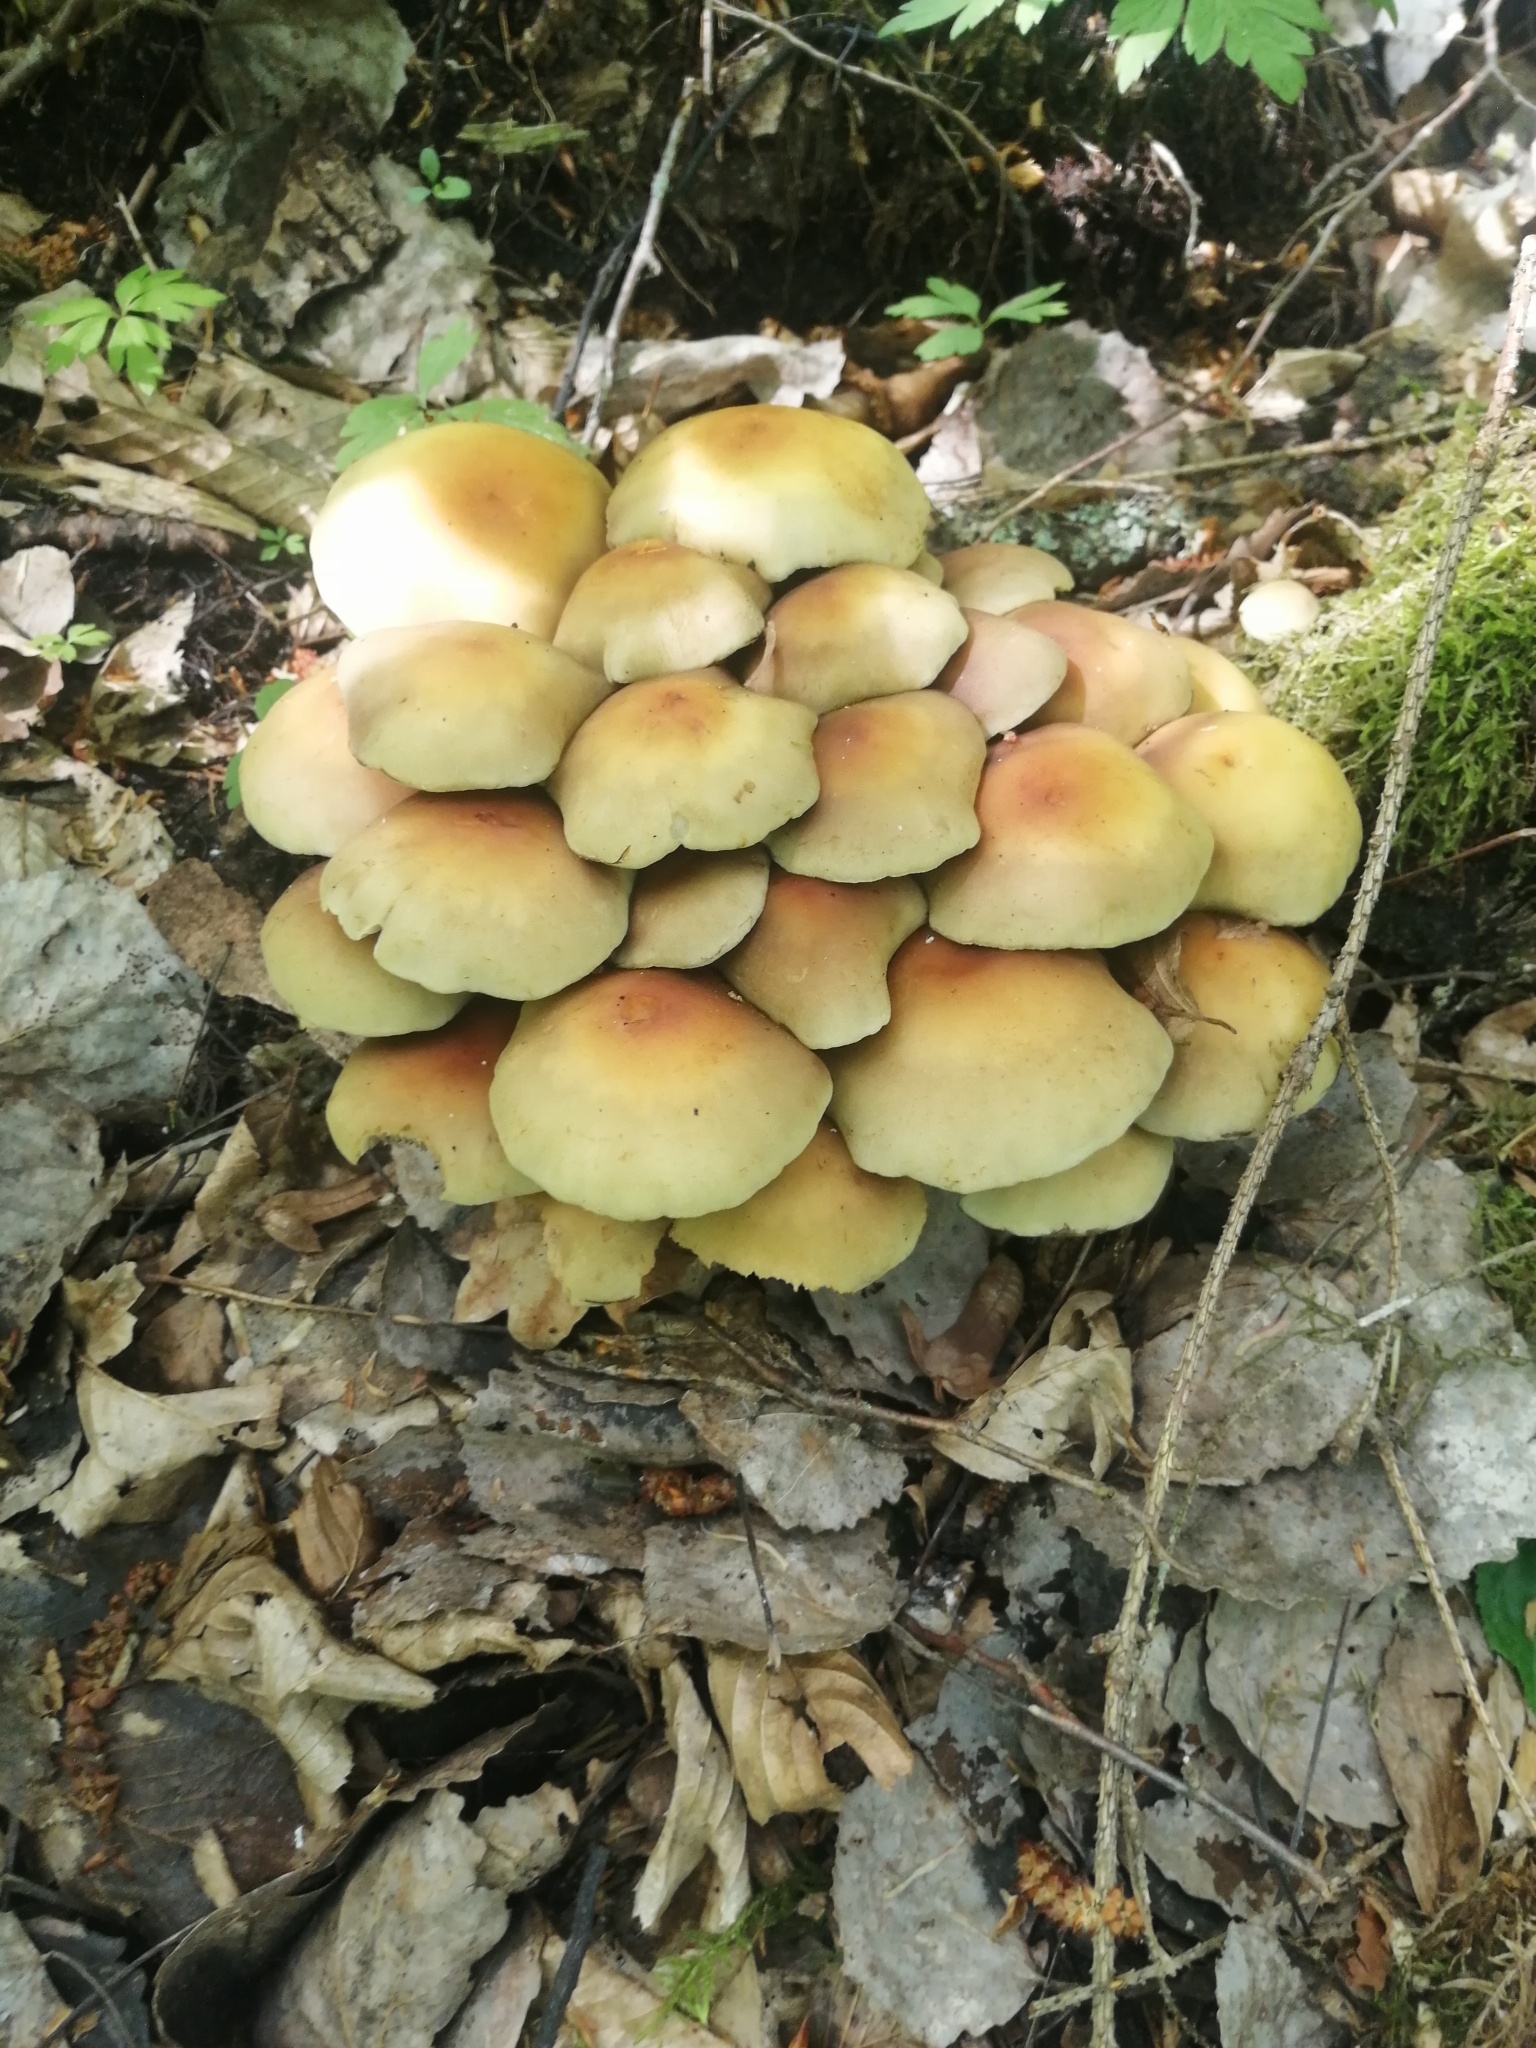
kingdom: Fungi
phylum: Basidiomycota
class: Agaricomycetes
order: Agaricales
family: Strophariaceae
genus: Hypholoma
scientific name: Hypholoma fasciculare
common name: Sulphur tuft
